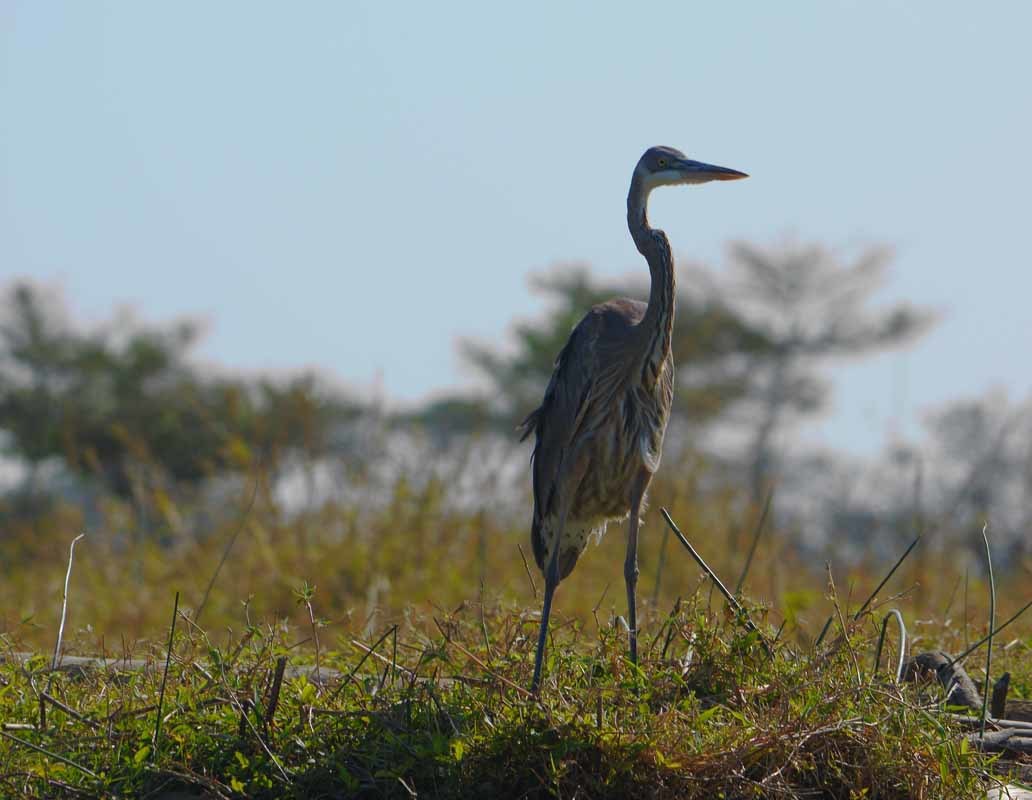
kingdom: Animalia
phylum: Chordata
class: Aves
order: Pelecaniformes
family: Ardeidae
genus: Ardea
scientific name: Ardea herodias
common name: Great blue heron
